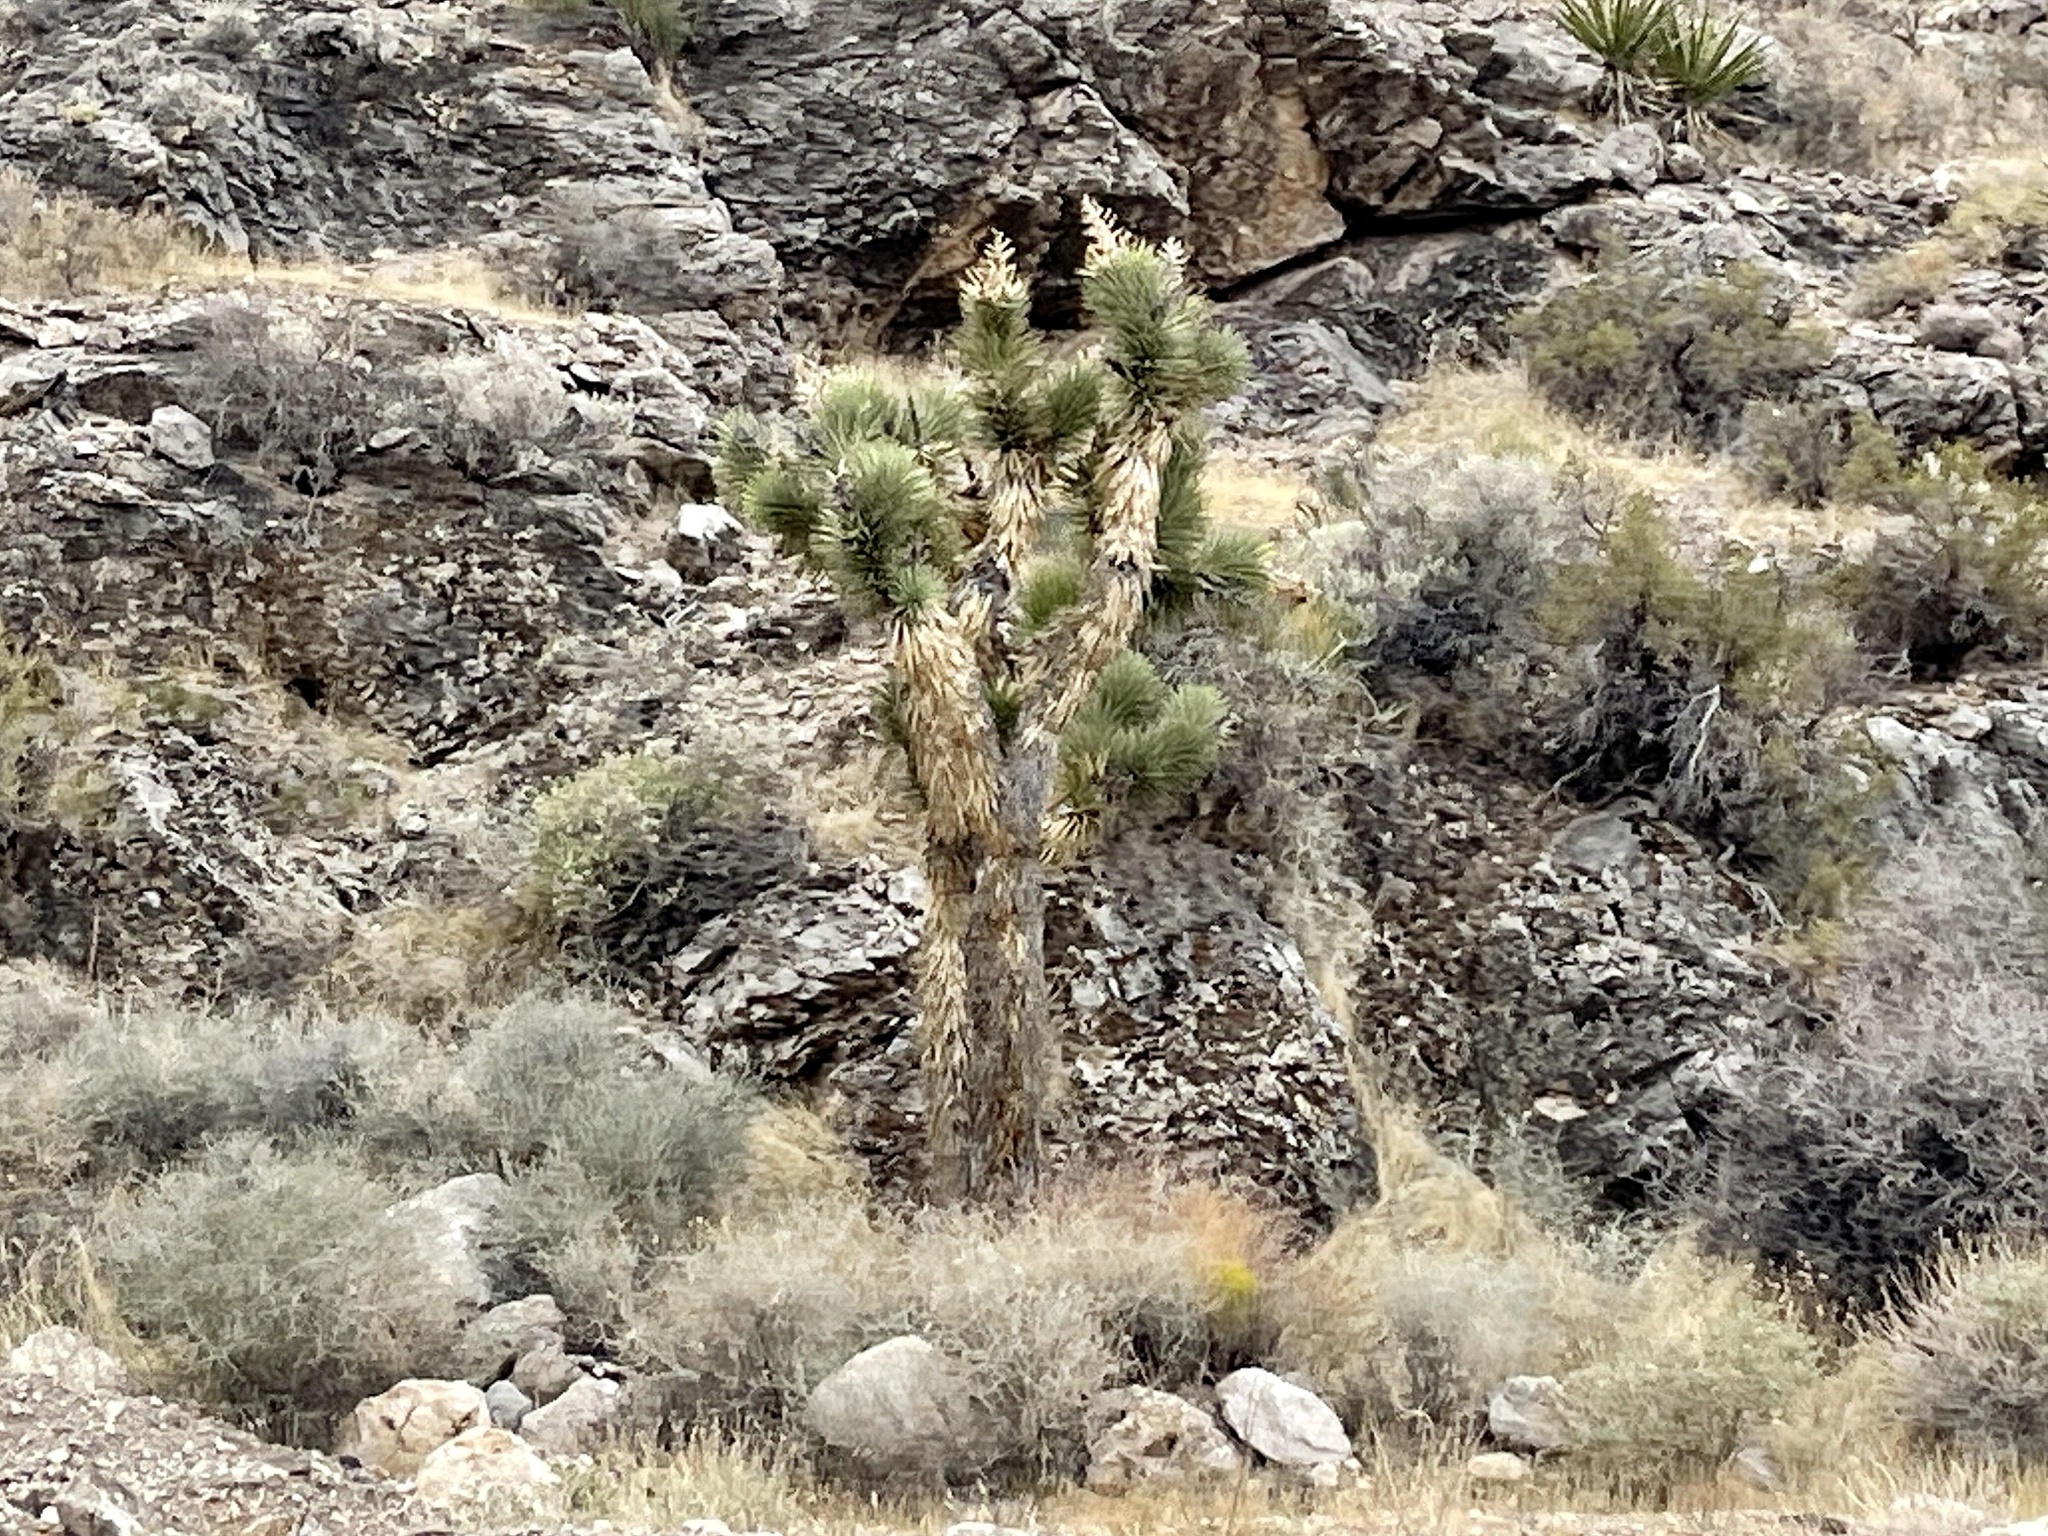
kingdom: Plantae
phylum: Tracheophyta
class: Liliopsida
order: Asparagales
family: Asparagaceae
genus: Yucca
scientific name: Yucca brevifolia
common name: Joshua tree
